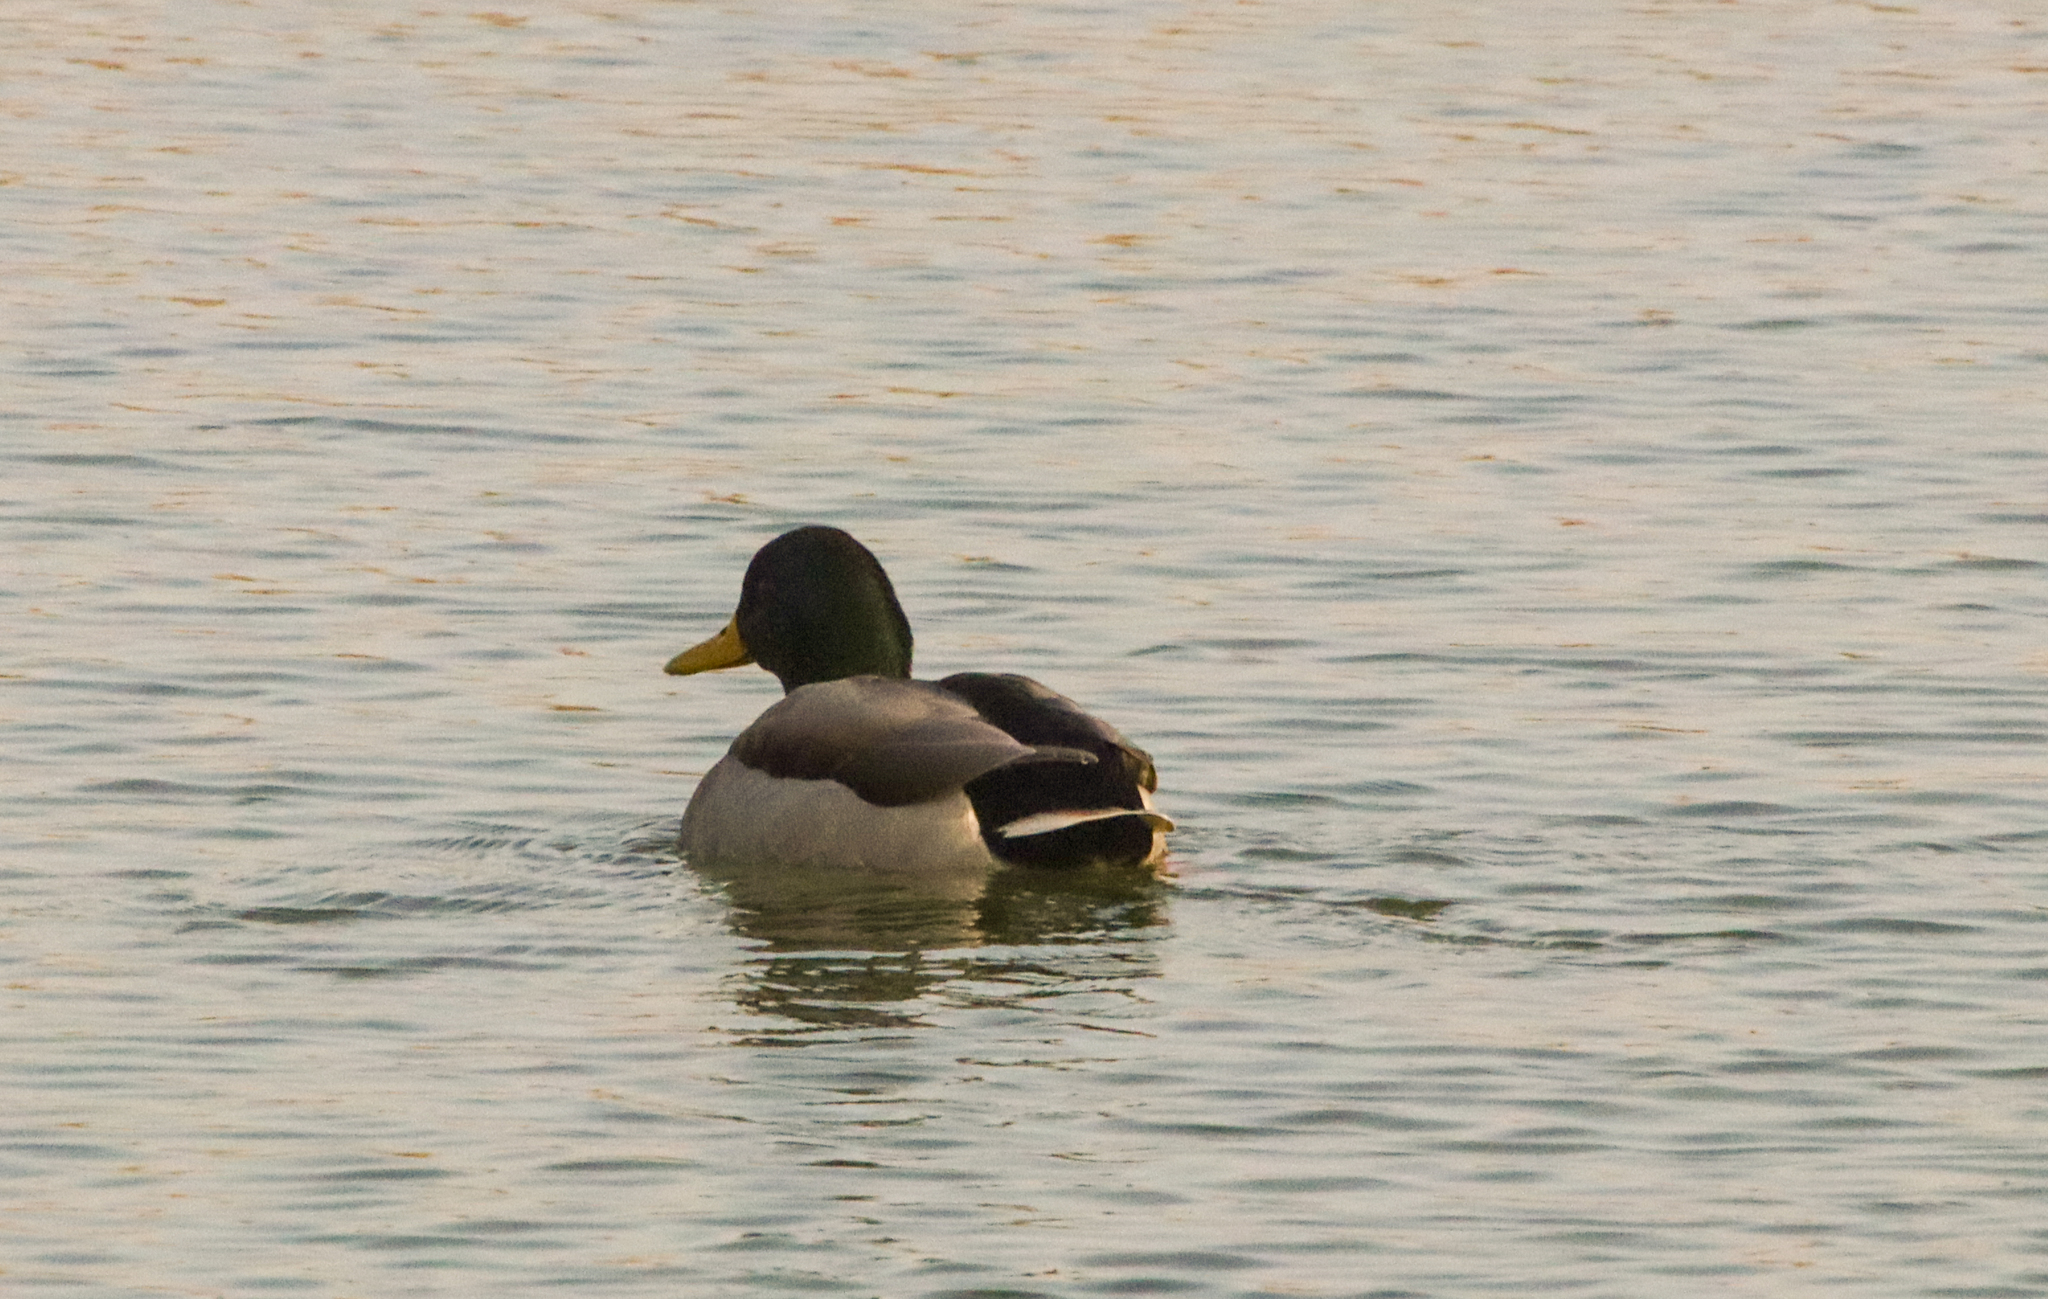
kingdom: Animalia
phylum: Chordata
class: Aves
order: Anseriformes
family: Anatidae
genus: Anas
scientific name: Anas platyrhynchos
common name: Mallard
